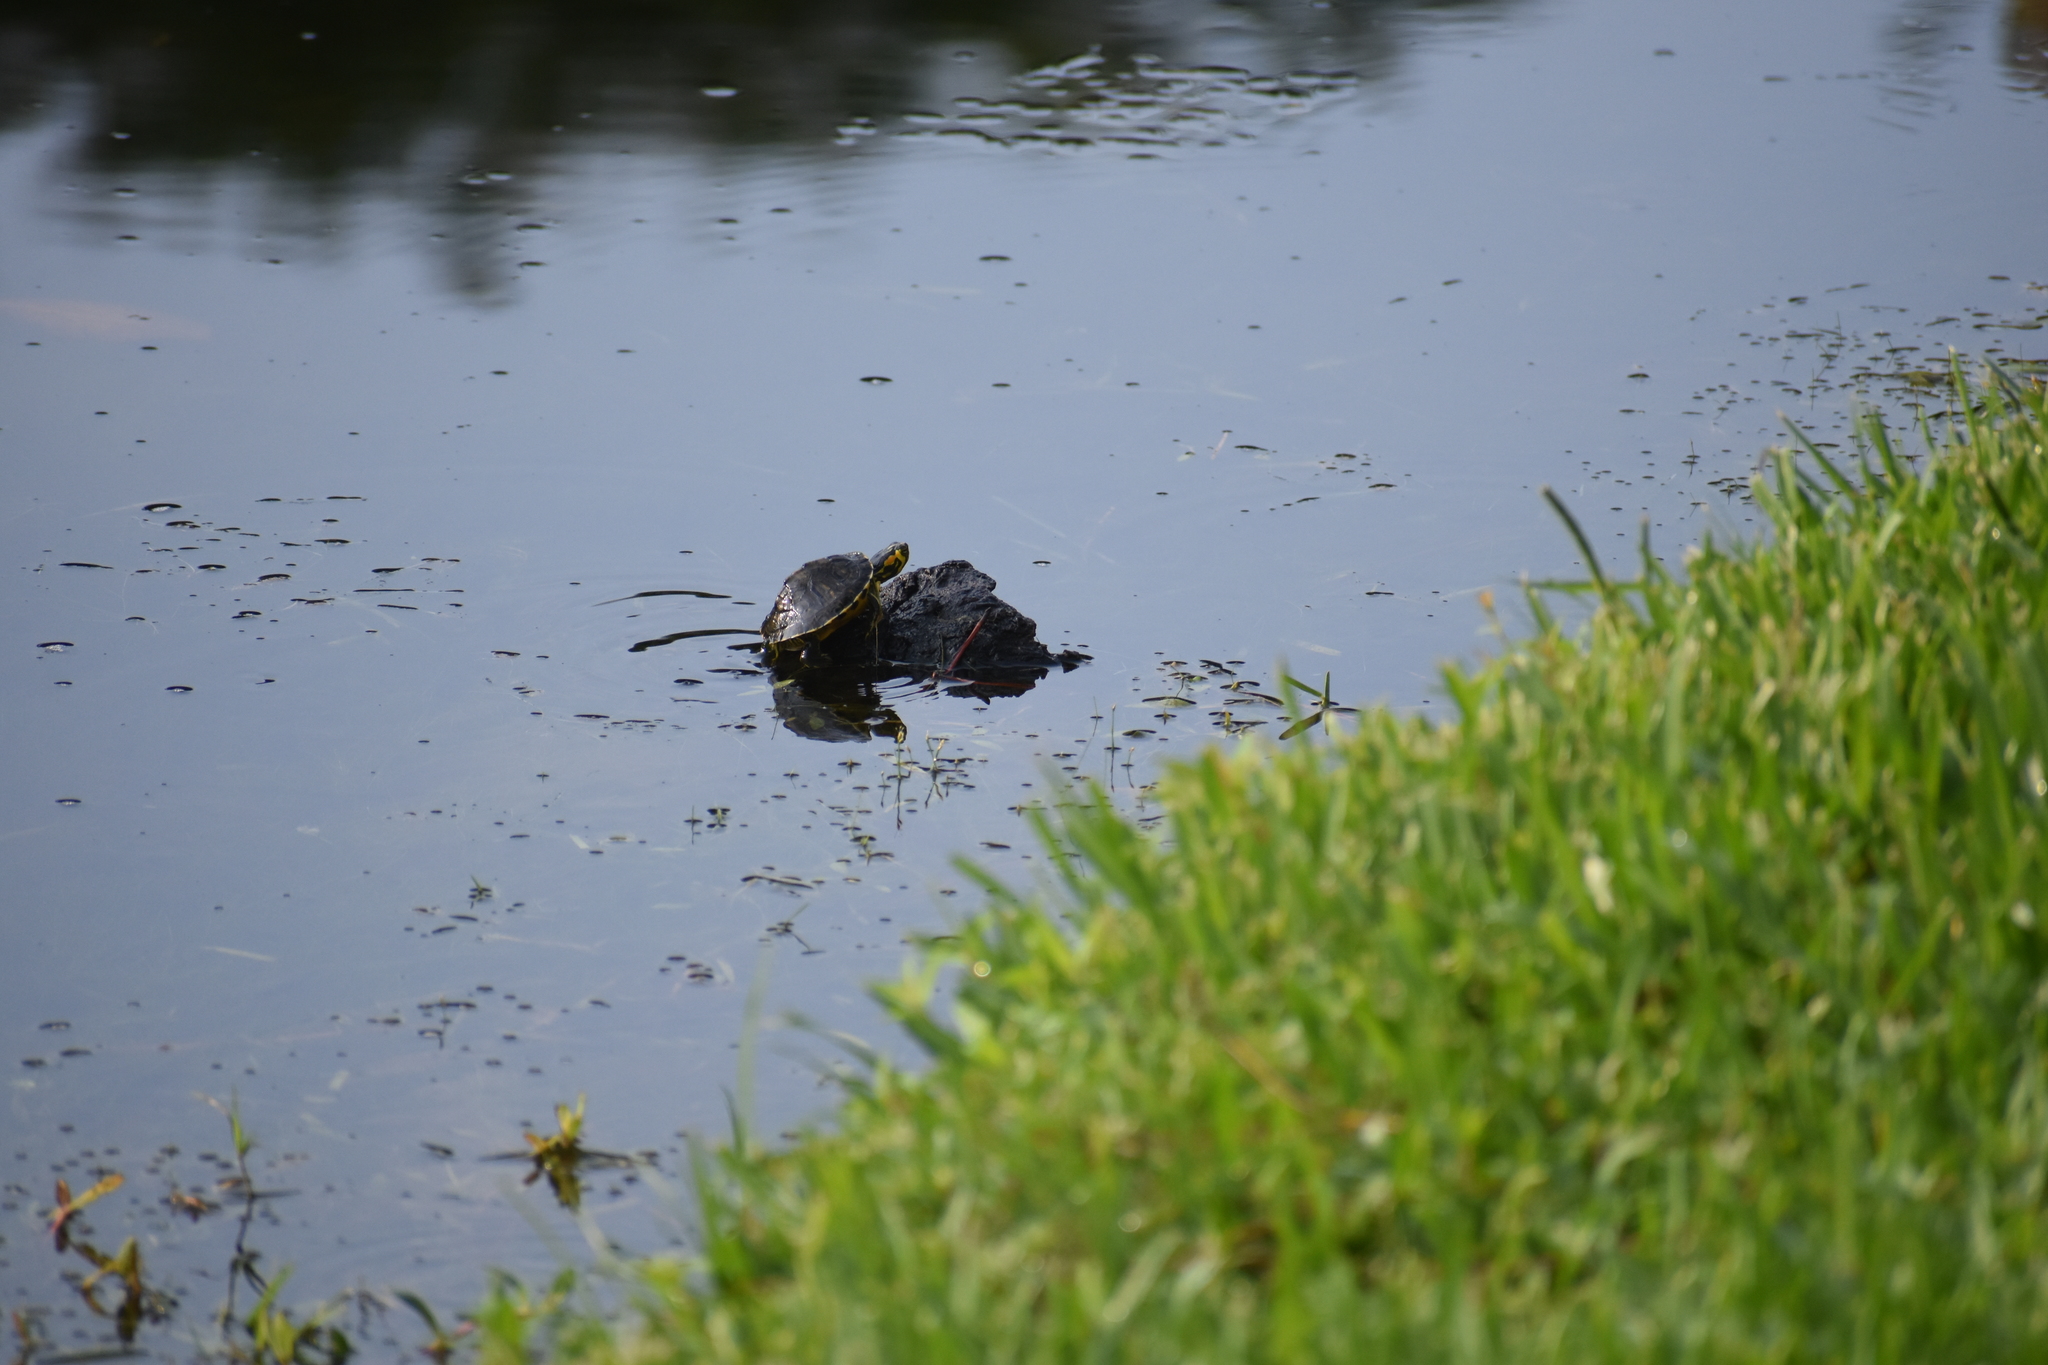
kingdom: Animalia
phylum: Chordata
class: Testudines
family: Emydidae
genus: Trachemys
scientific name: Trachemys scripta
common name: Slider
